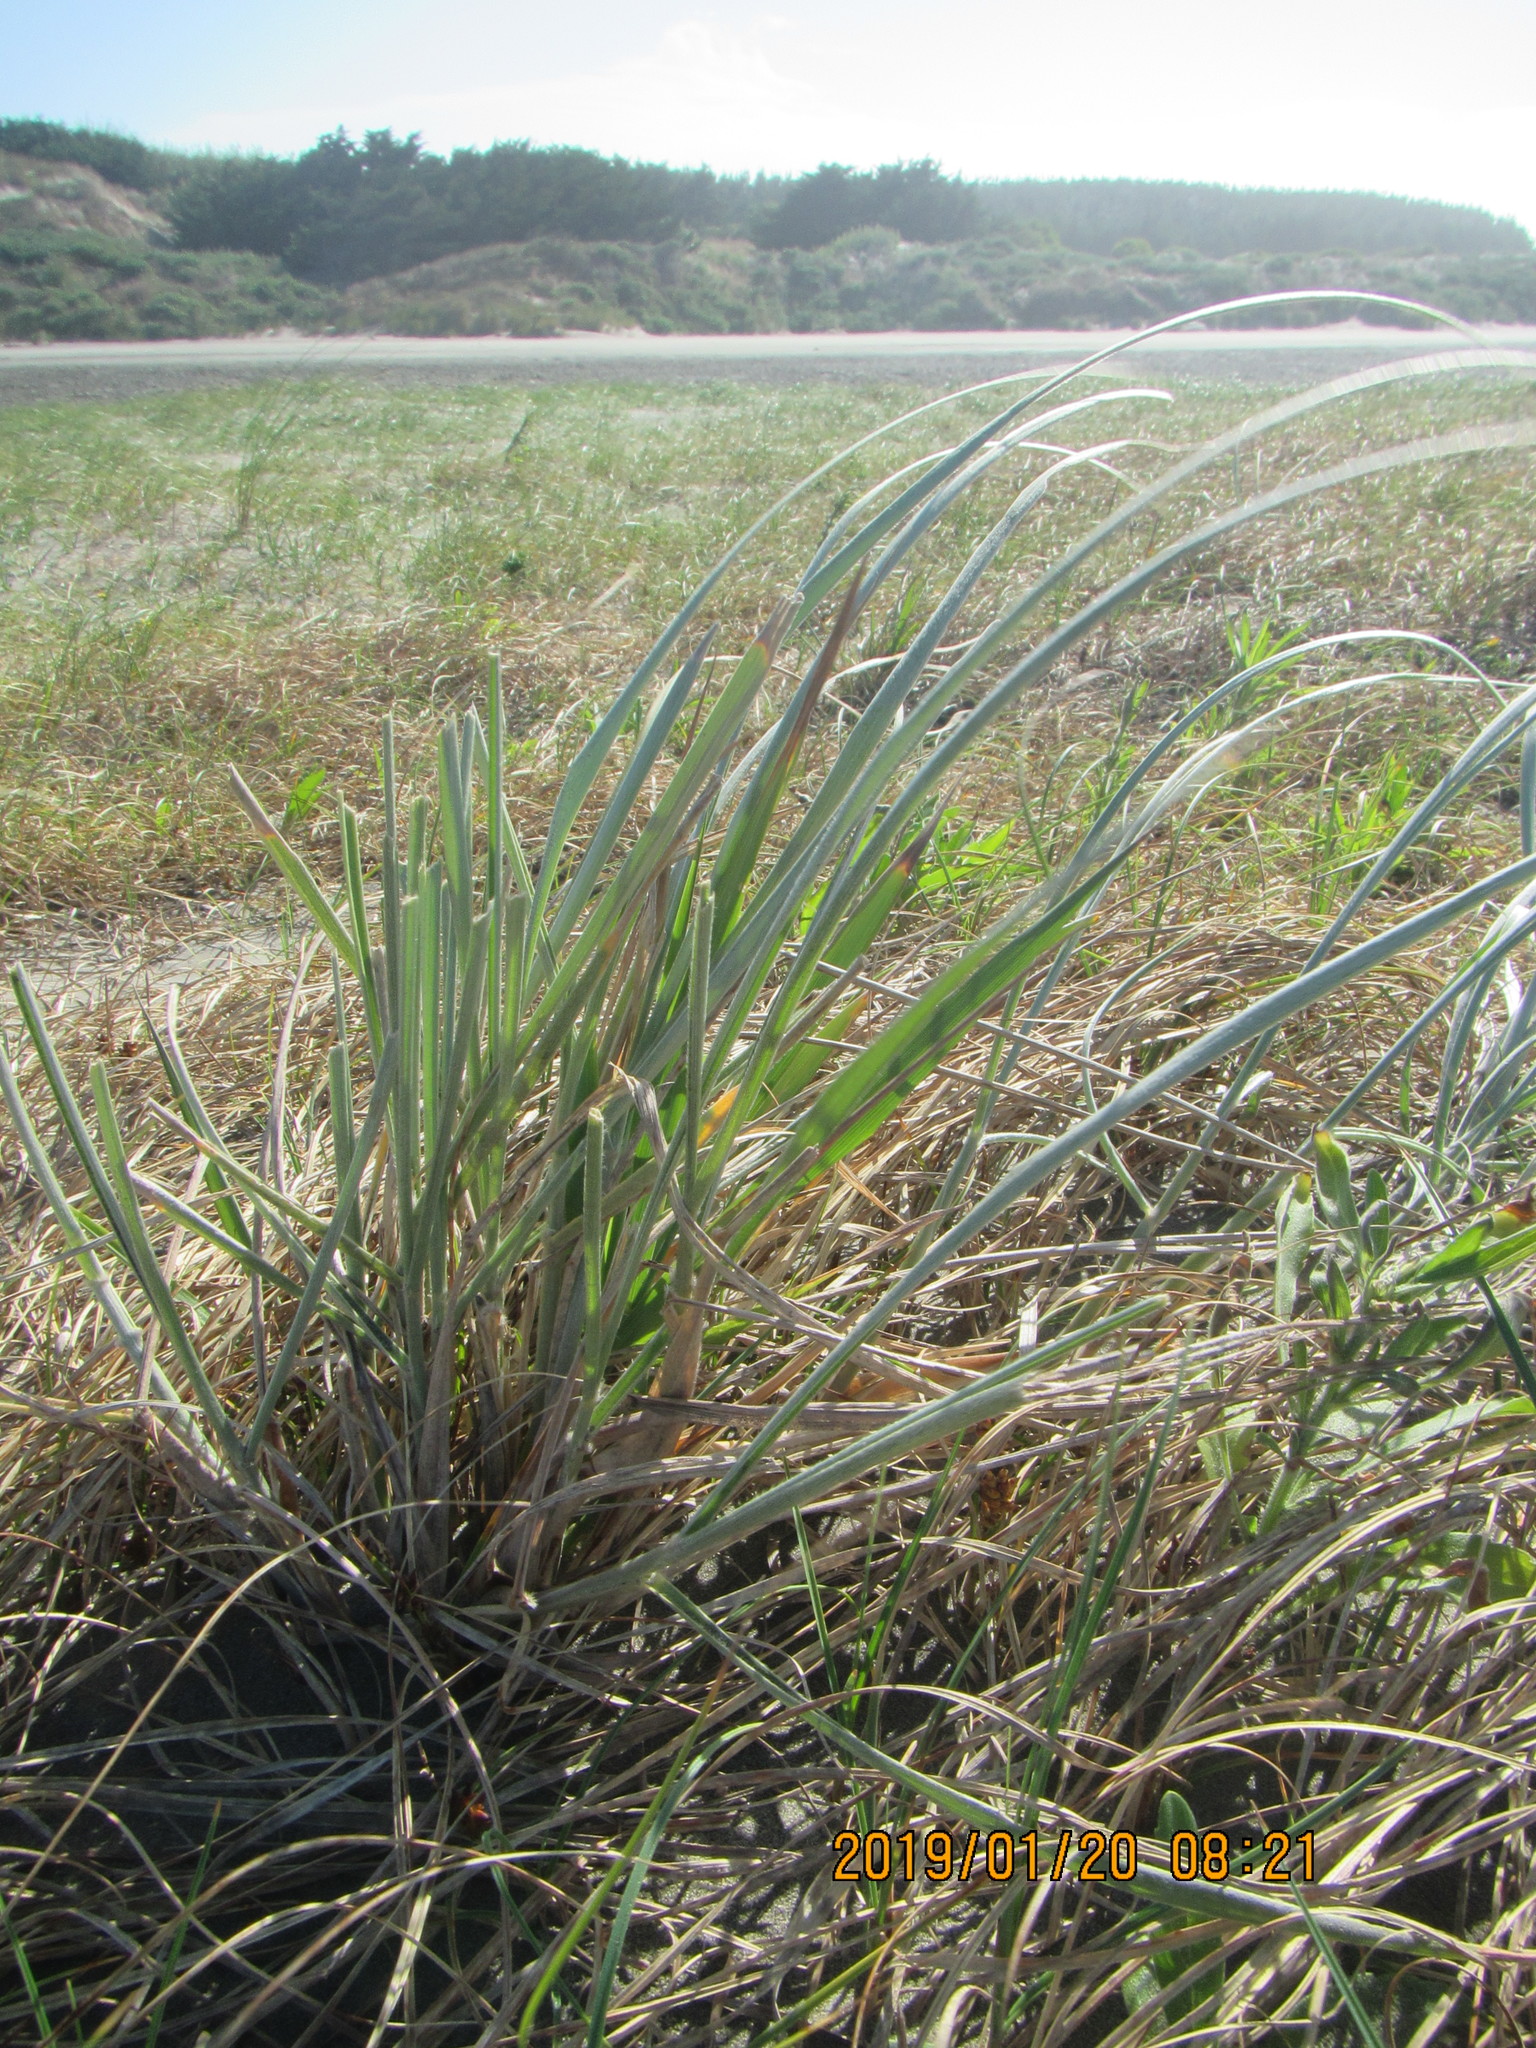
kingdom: Plantae
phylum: Tracheophyta
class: Liliopsida
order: Poales
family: Poaceae
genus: Spinifex
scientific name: Spinifex sericeus
